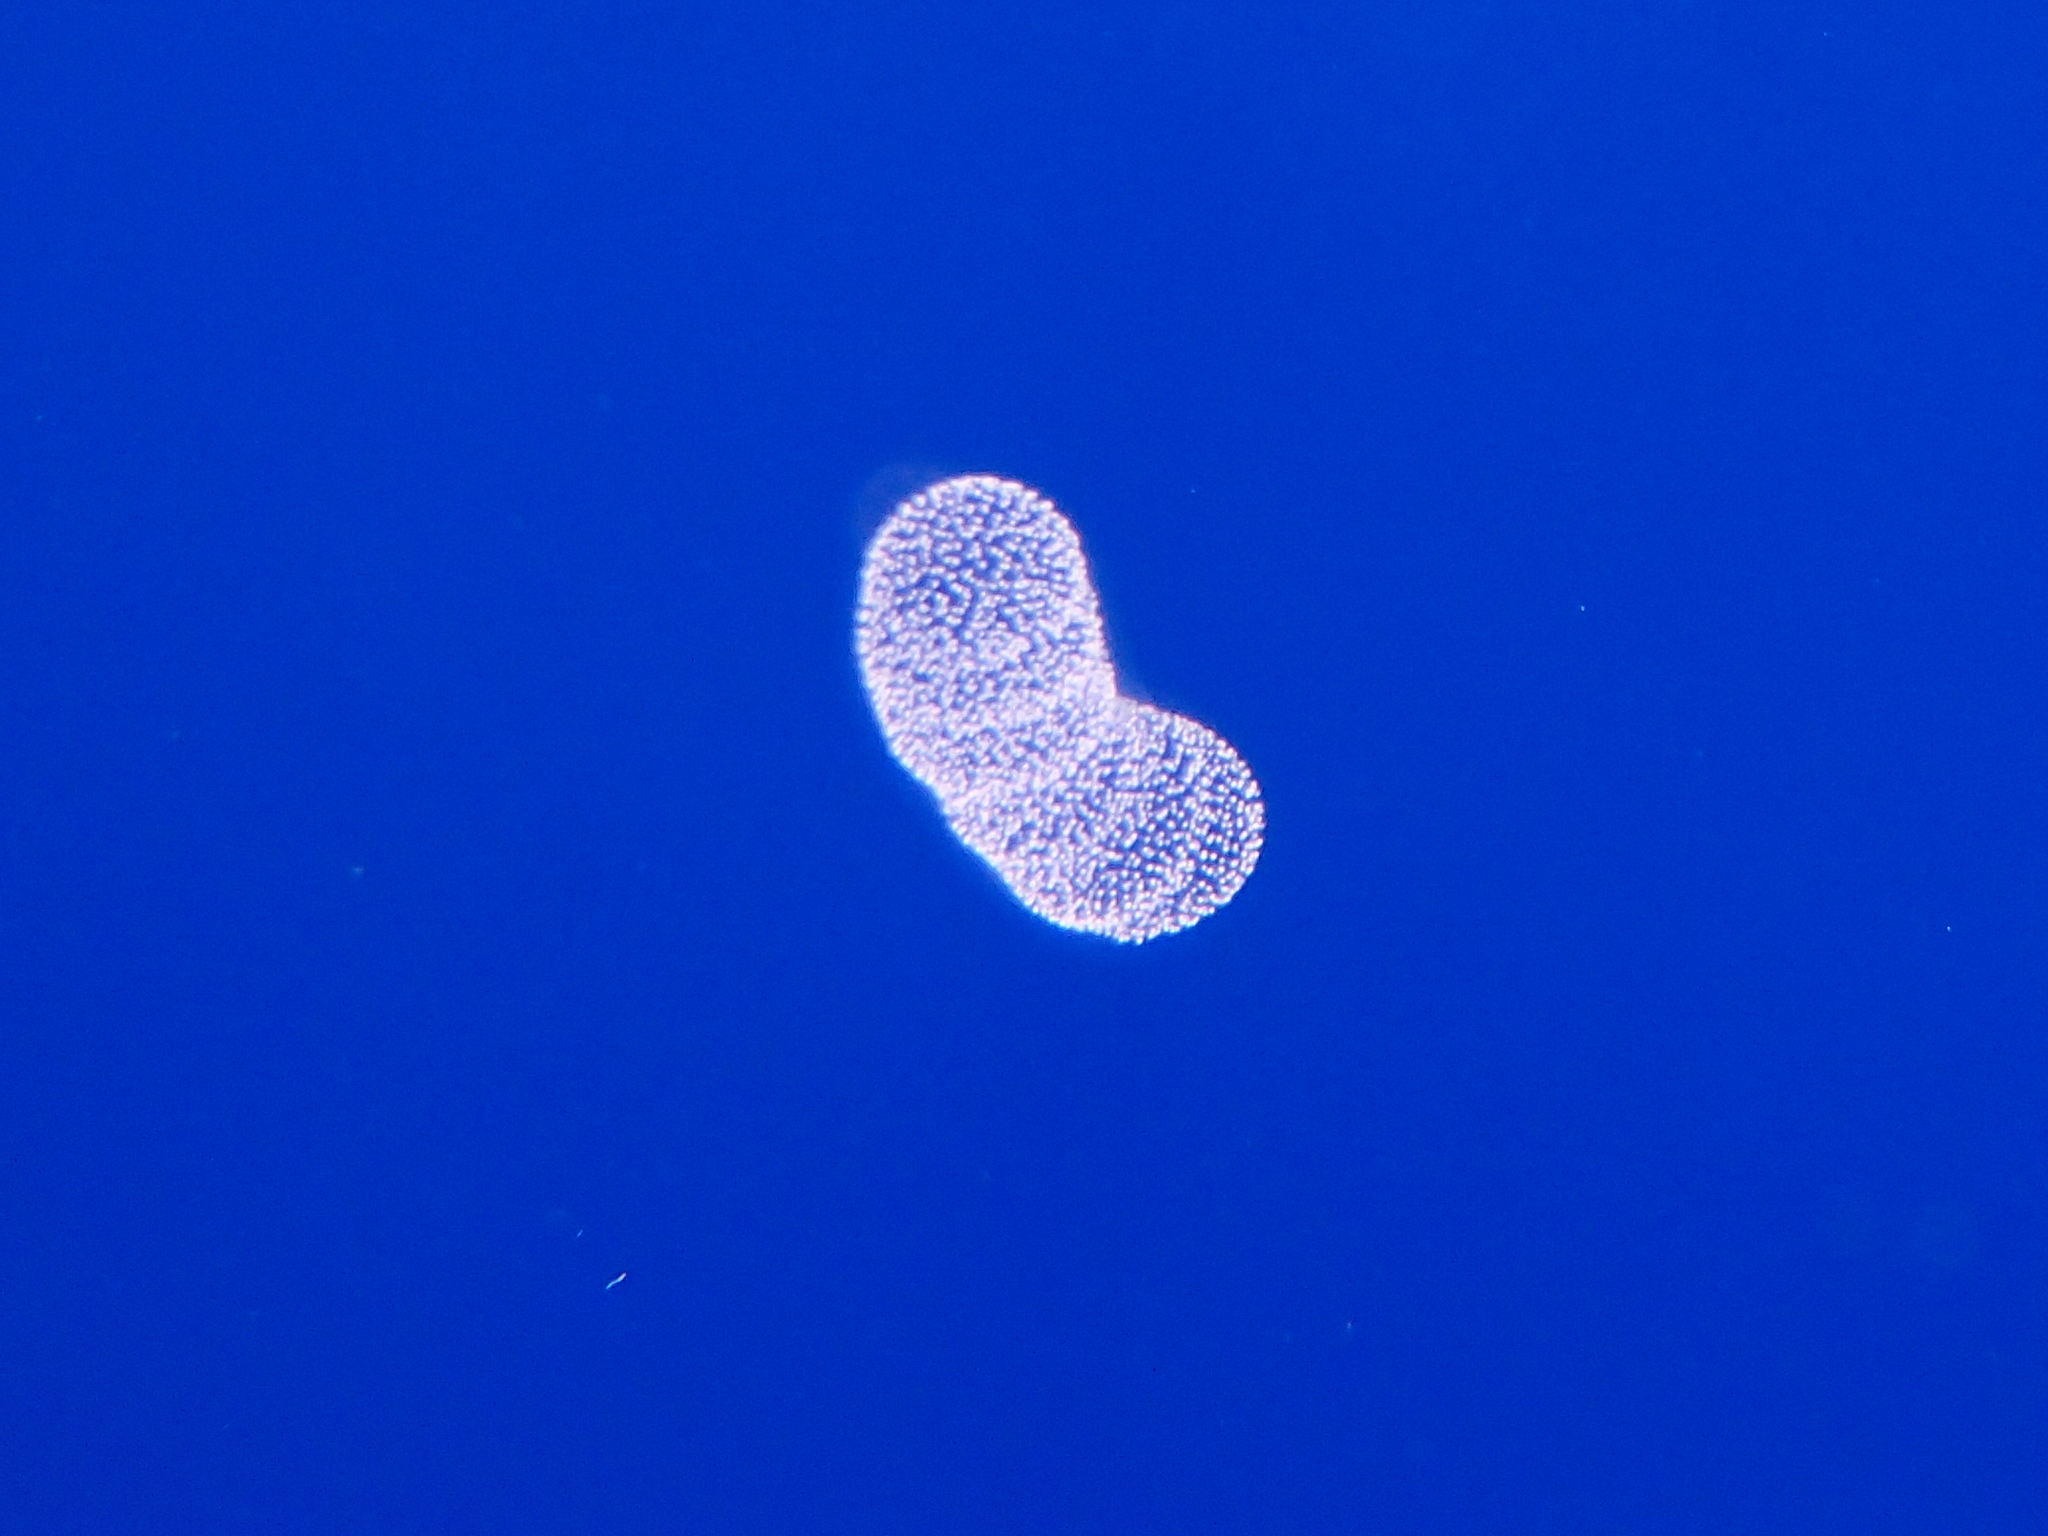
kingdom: Chromista
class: Polycystina
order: Nassellaria
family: Collozoidae
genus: Collozoum
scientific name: Collozoum inerme
